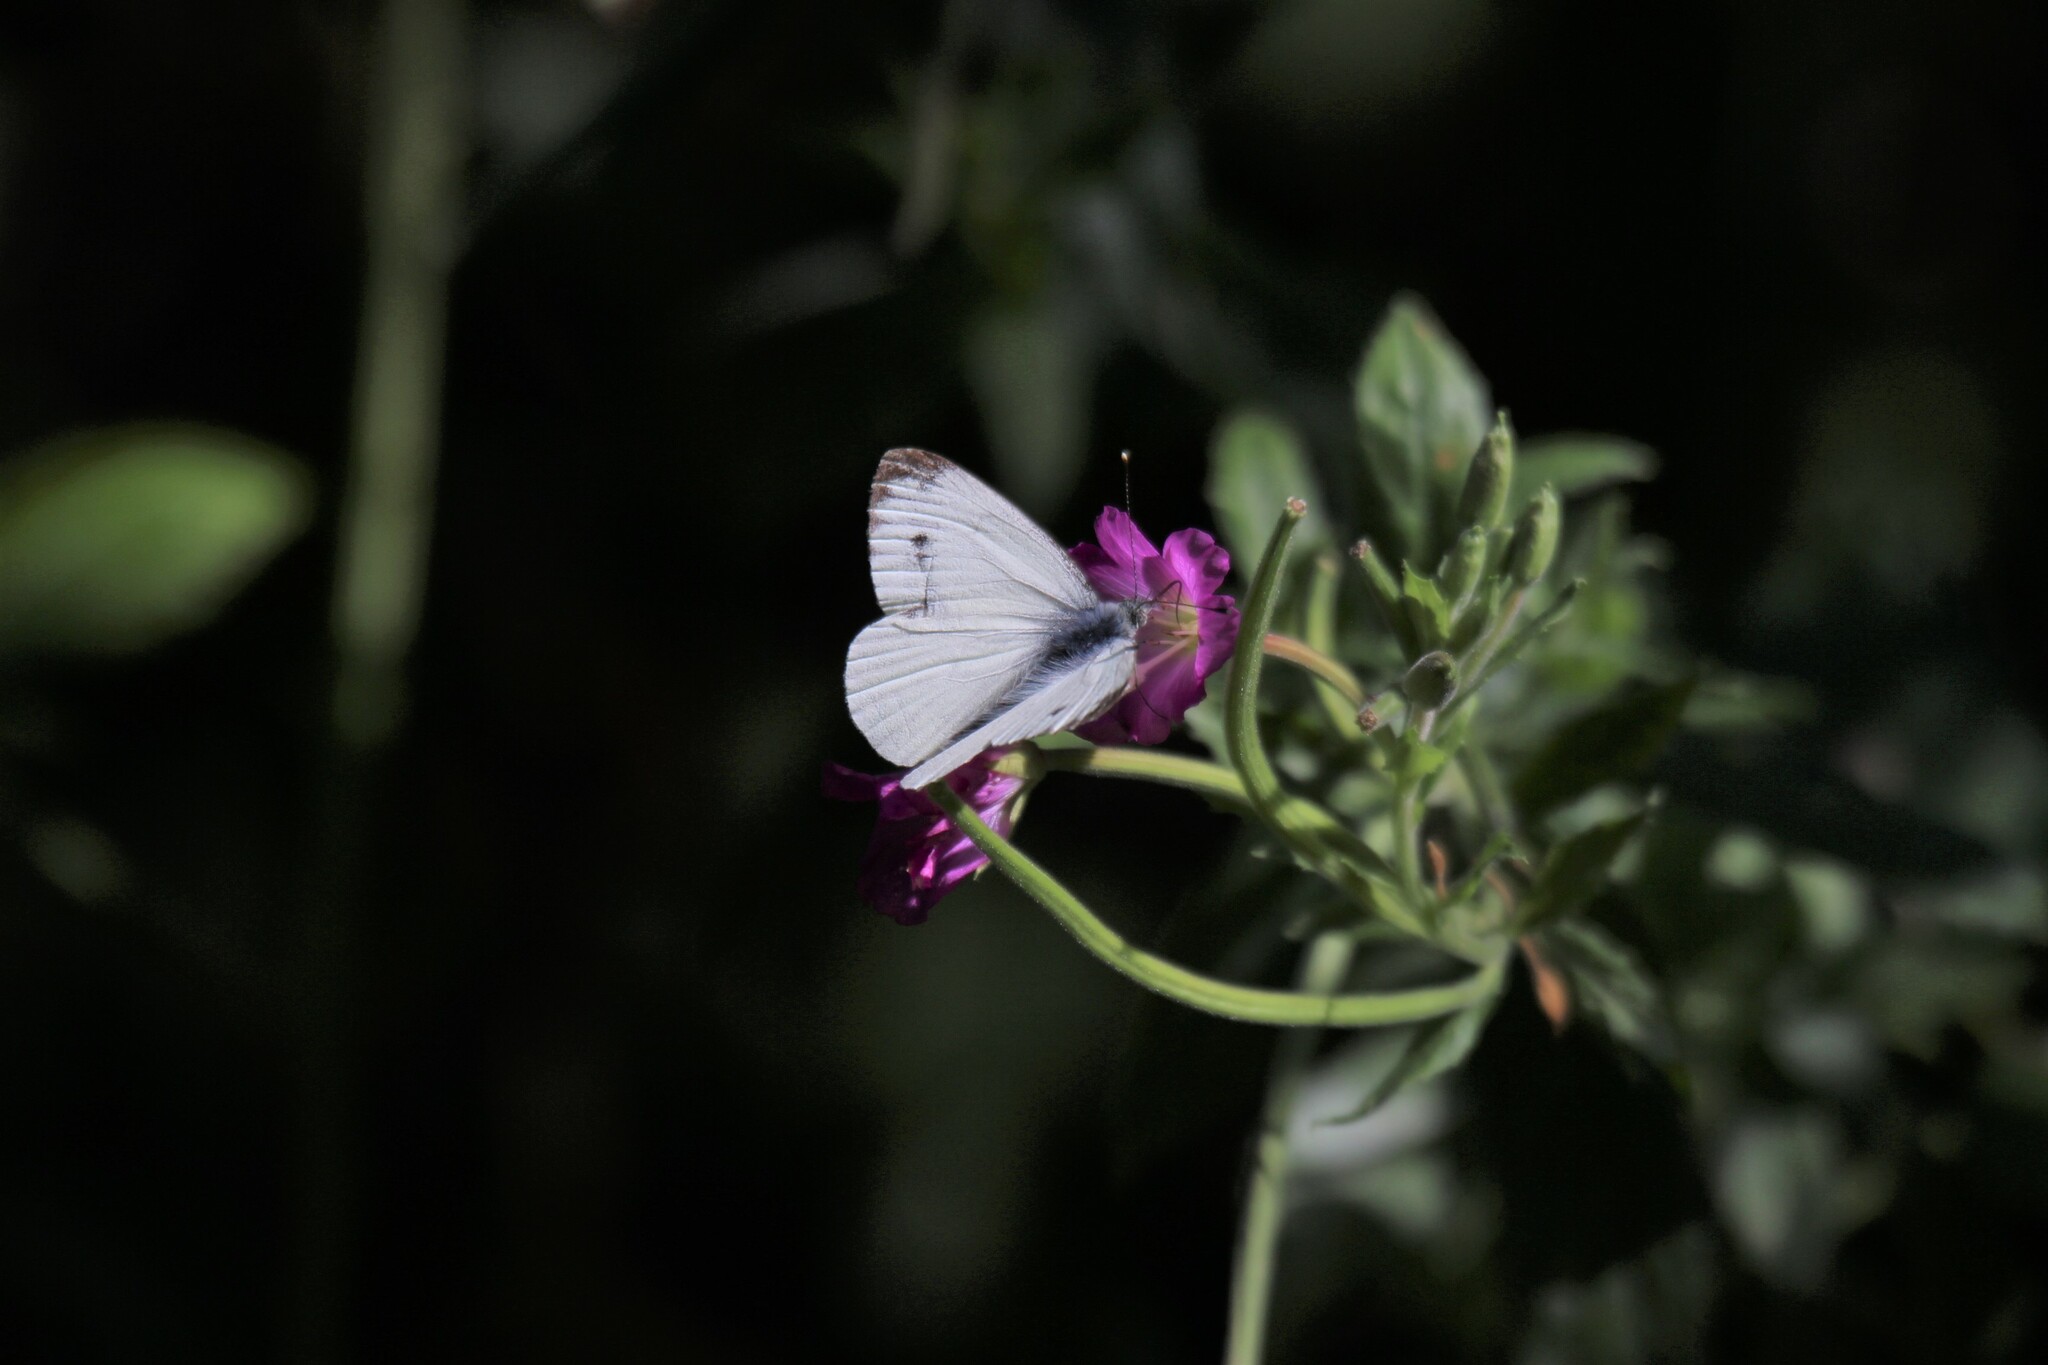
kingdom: Animalia
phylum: Arthropoda
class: Insecta
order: Lepidoptera
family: Pieridae
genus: Pieris
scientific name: Pieris napi
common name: Green-veined white
